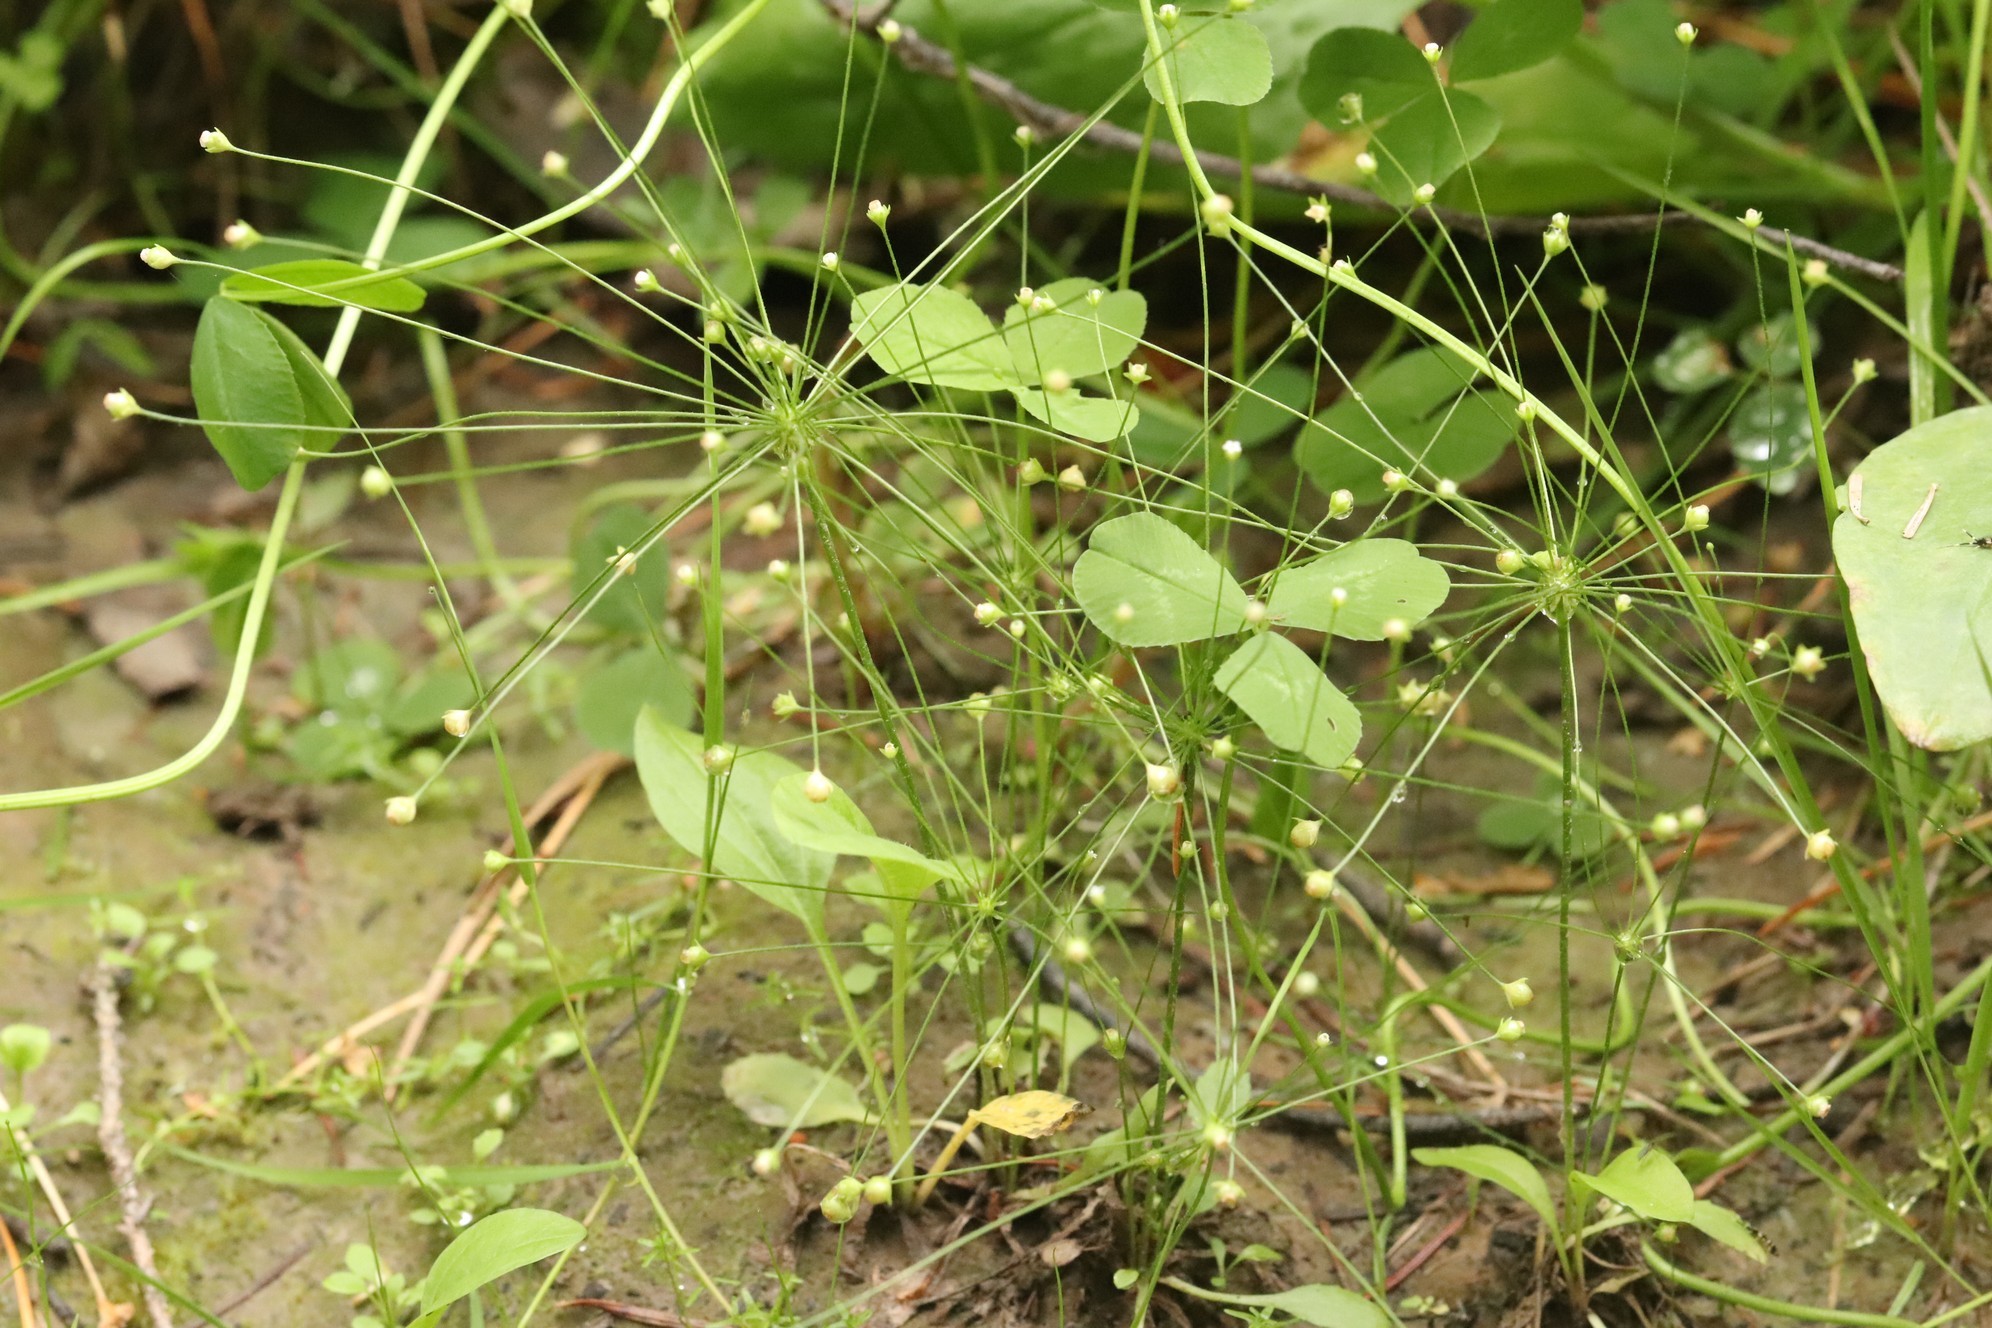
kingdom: Plantae
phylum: Tracheophyta
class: Magnoliopsida
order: Ericales
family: Primulaceae
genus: Androsace
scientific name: Androsace filiformis
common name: Filiform rock jasmine
